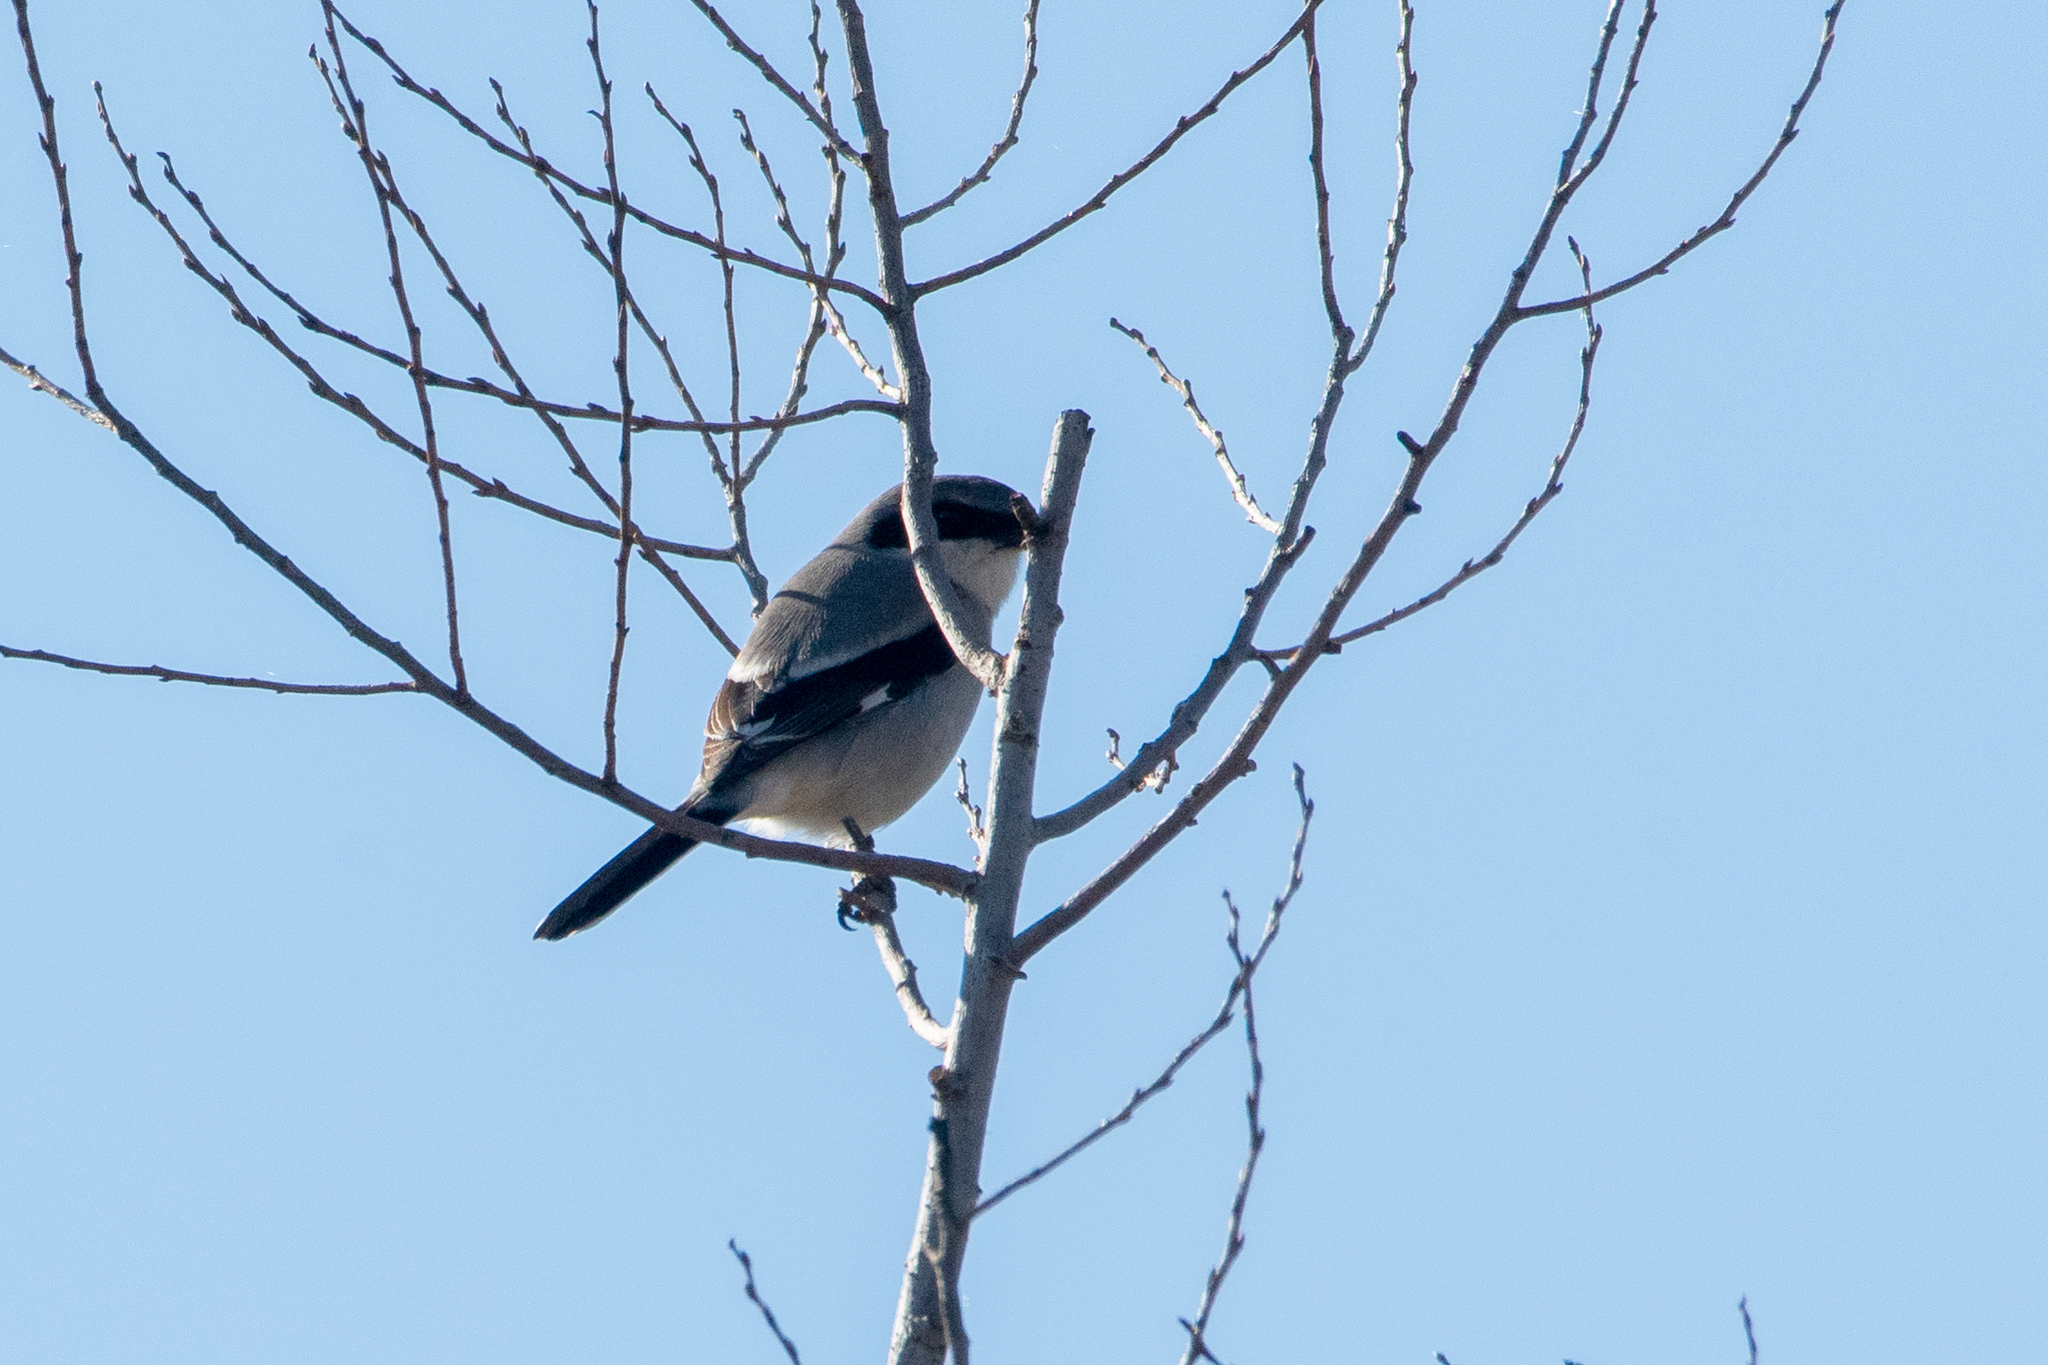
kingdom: Animalia
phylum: Chordata
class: Aves
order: Passeriformes
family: Laniidae
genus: Lanius
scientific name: Lanius ludovicianus
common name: Loggerhead shrike
